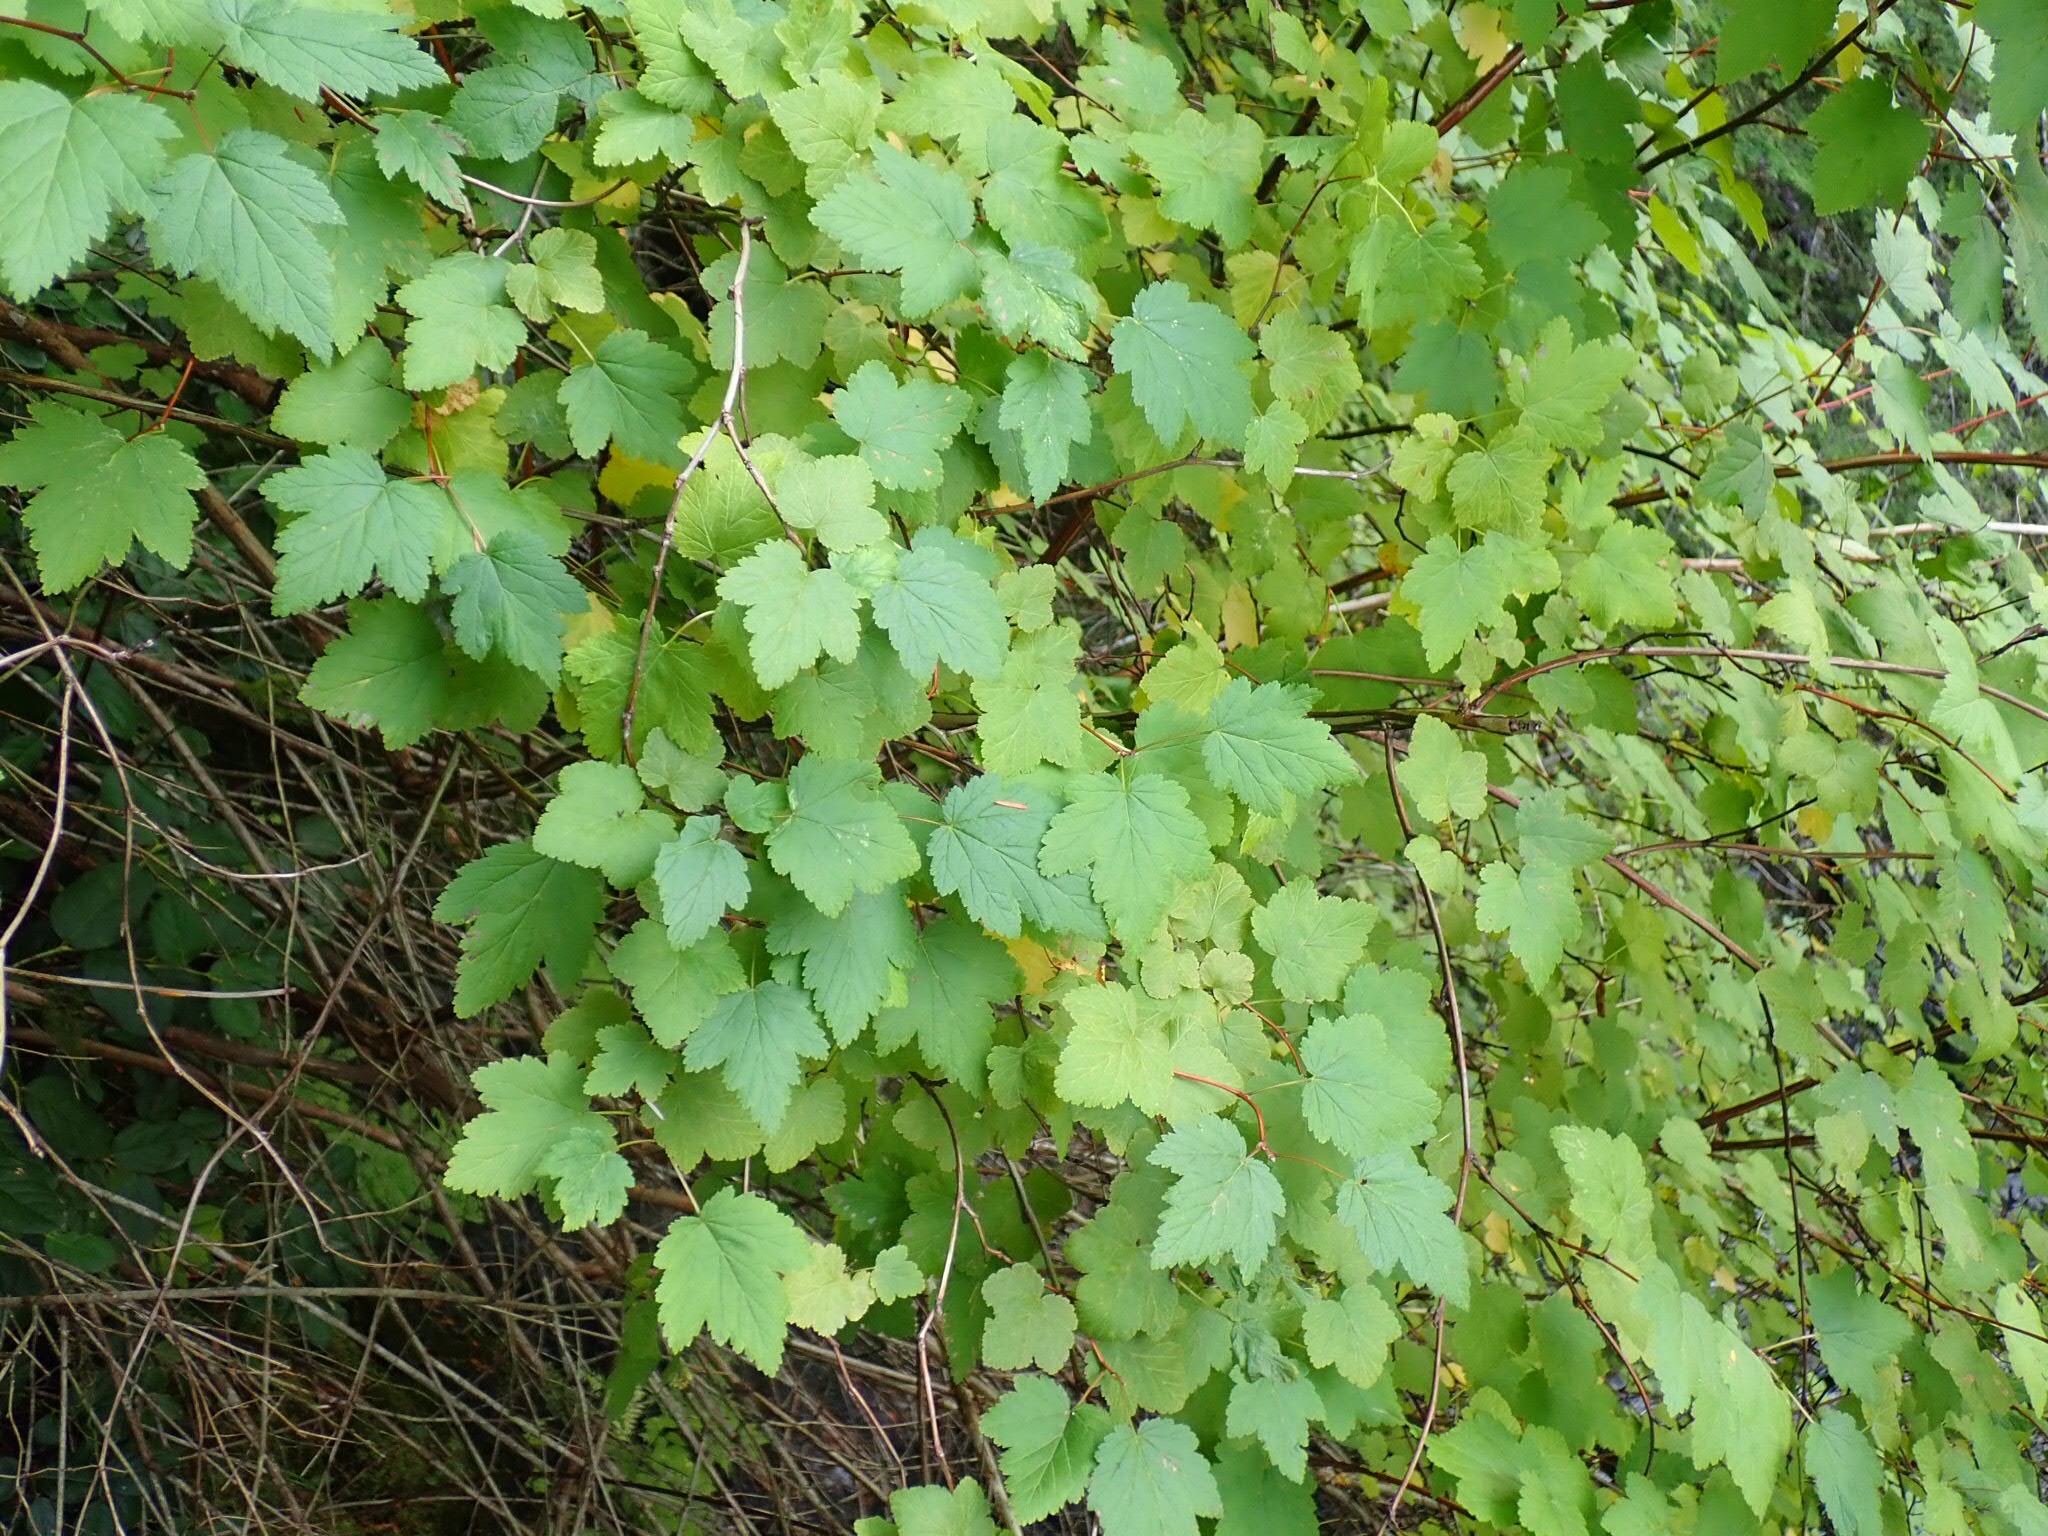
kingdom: Plantae
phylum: Tracheophyta
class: Magnoliopsida
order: Saxifragales
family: Grossulariaceae
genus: Ribes
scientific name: Ribes sanguineum
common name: Flowering currant
